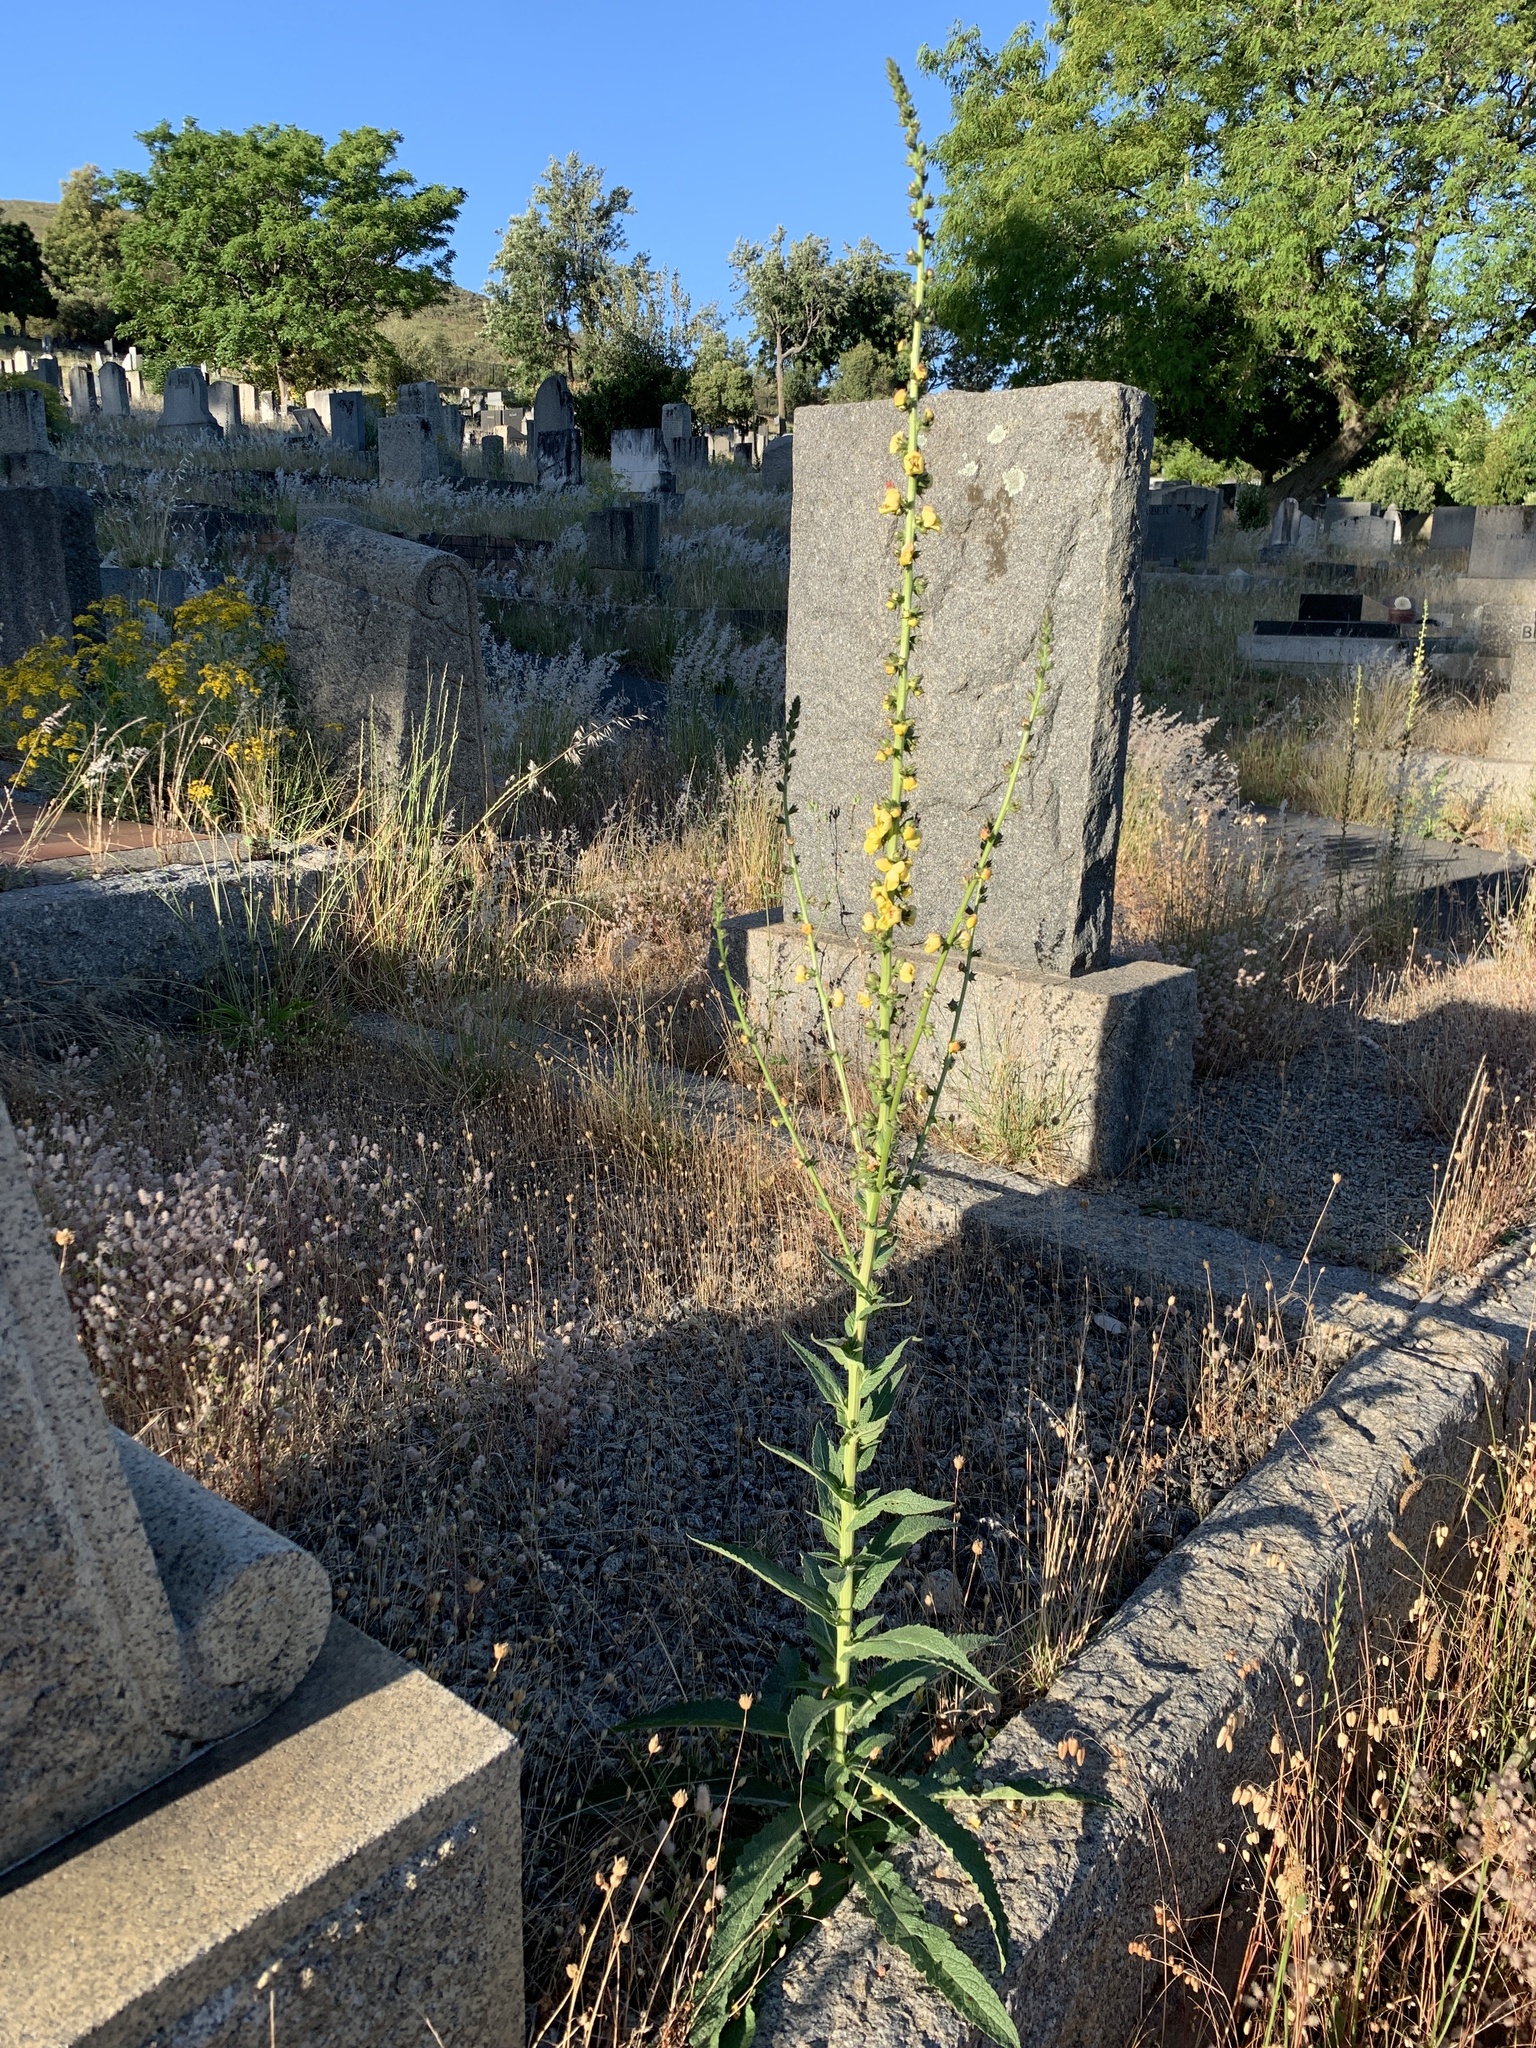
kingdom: Plantae
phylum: Tracheophyta
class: Magnoliopsida
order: Lamiales
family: Scrophulariaceae
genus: Verbascum
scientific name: Verbascum virgatum
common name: Twiggy mullein
